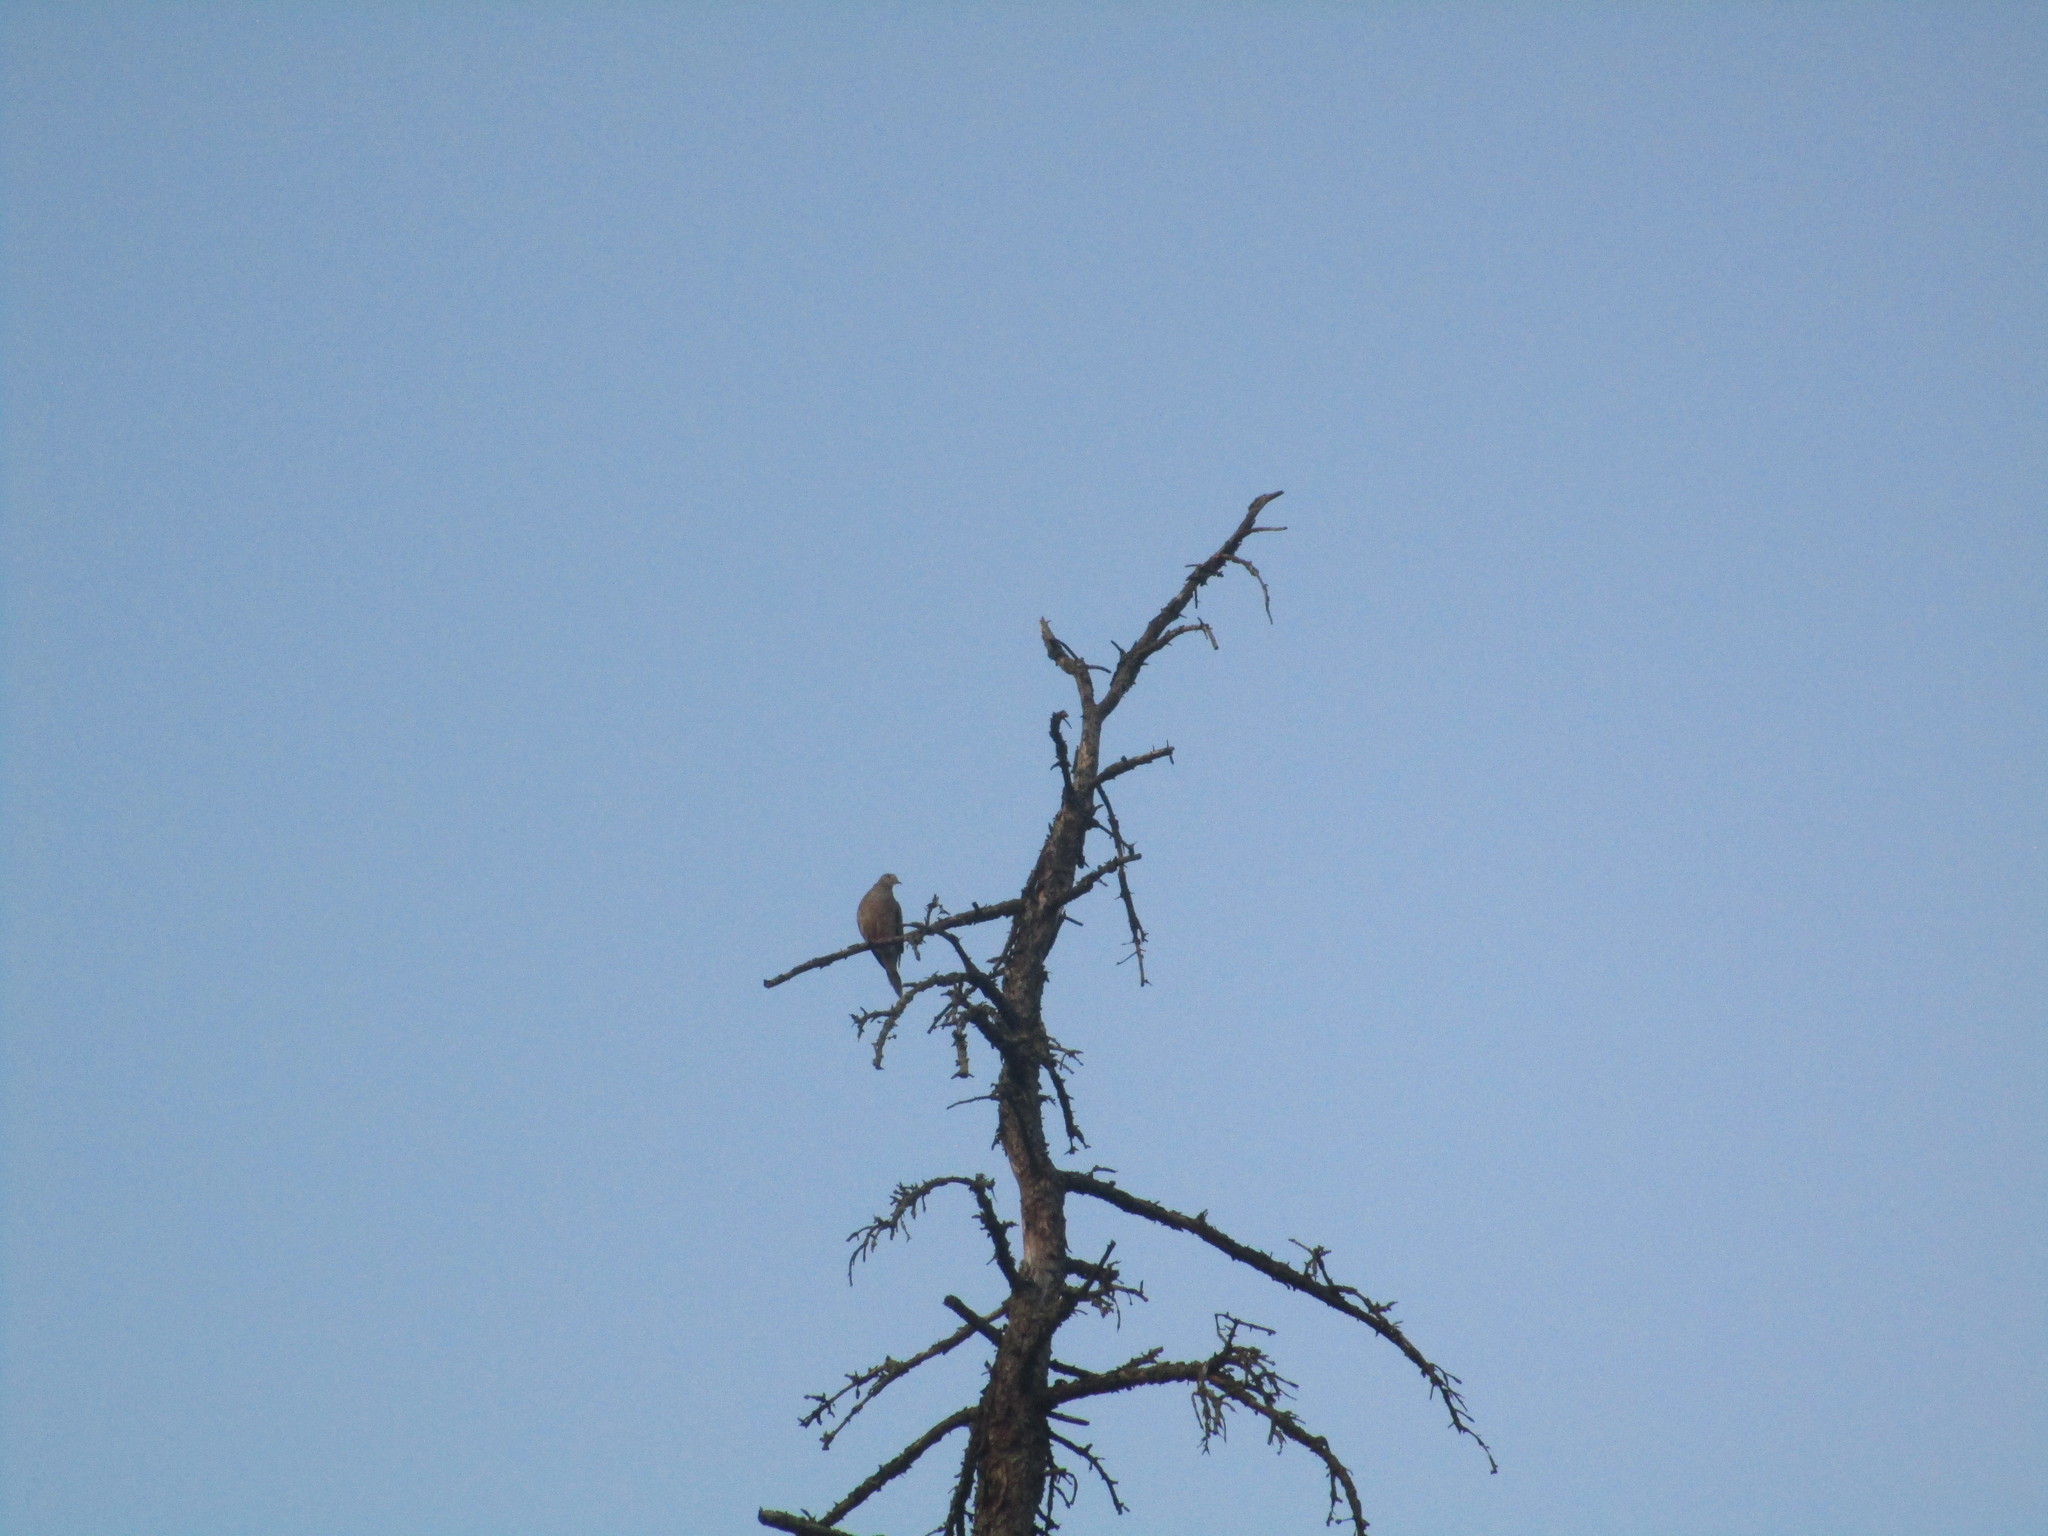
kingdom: Animalia
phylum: Chordata
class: Aves
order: Columbiformes
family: Columbidae
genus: Zenaida
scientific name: Zenaida macroura
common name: Mourning dove
